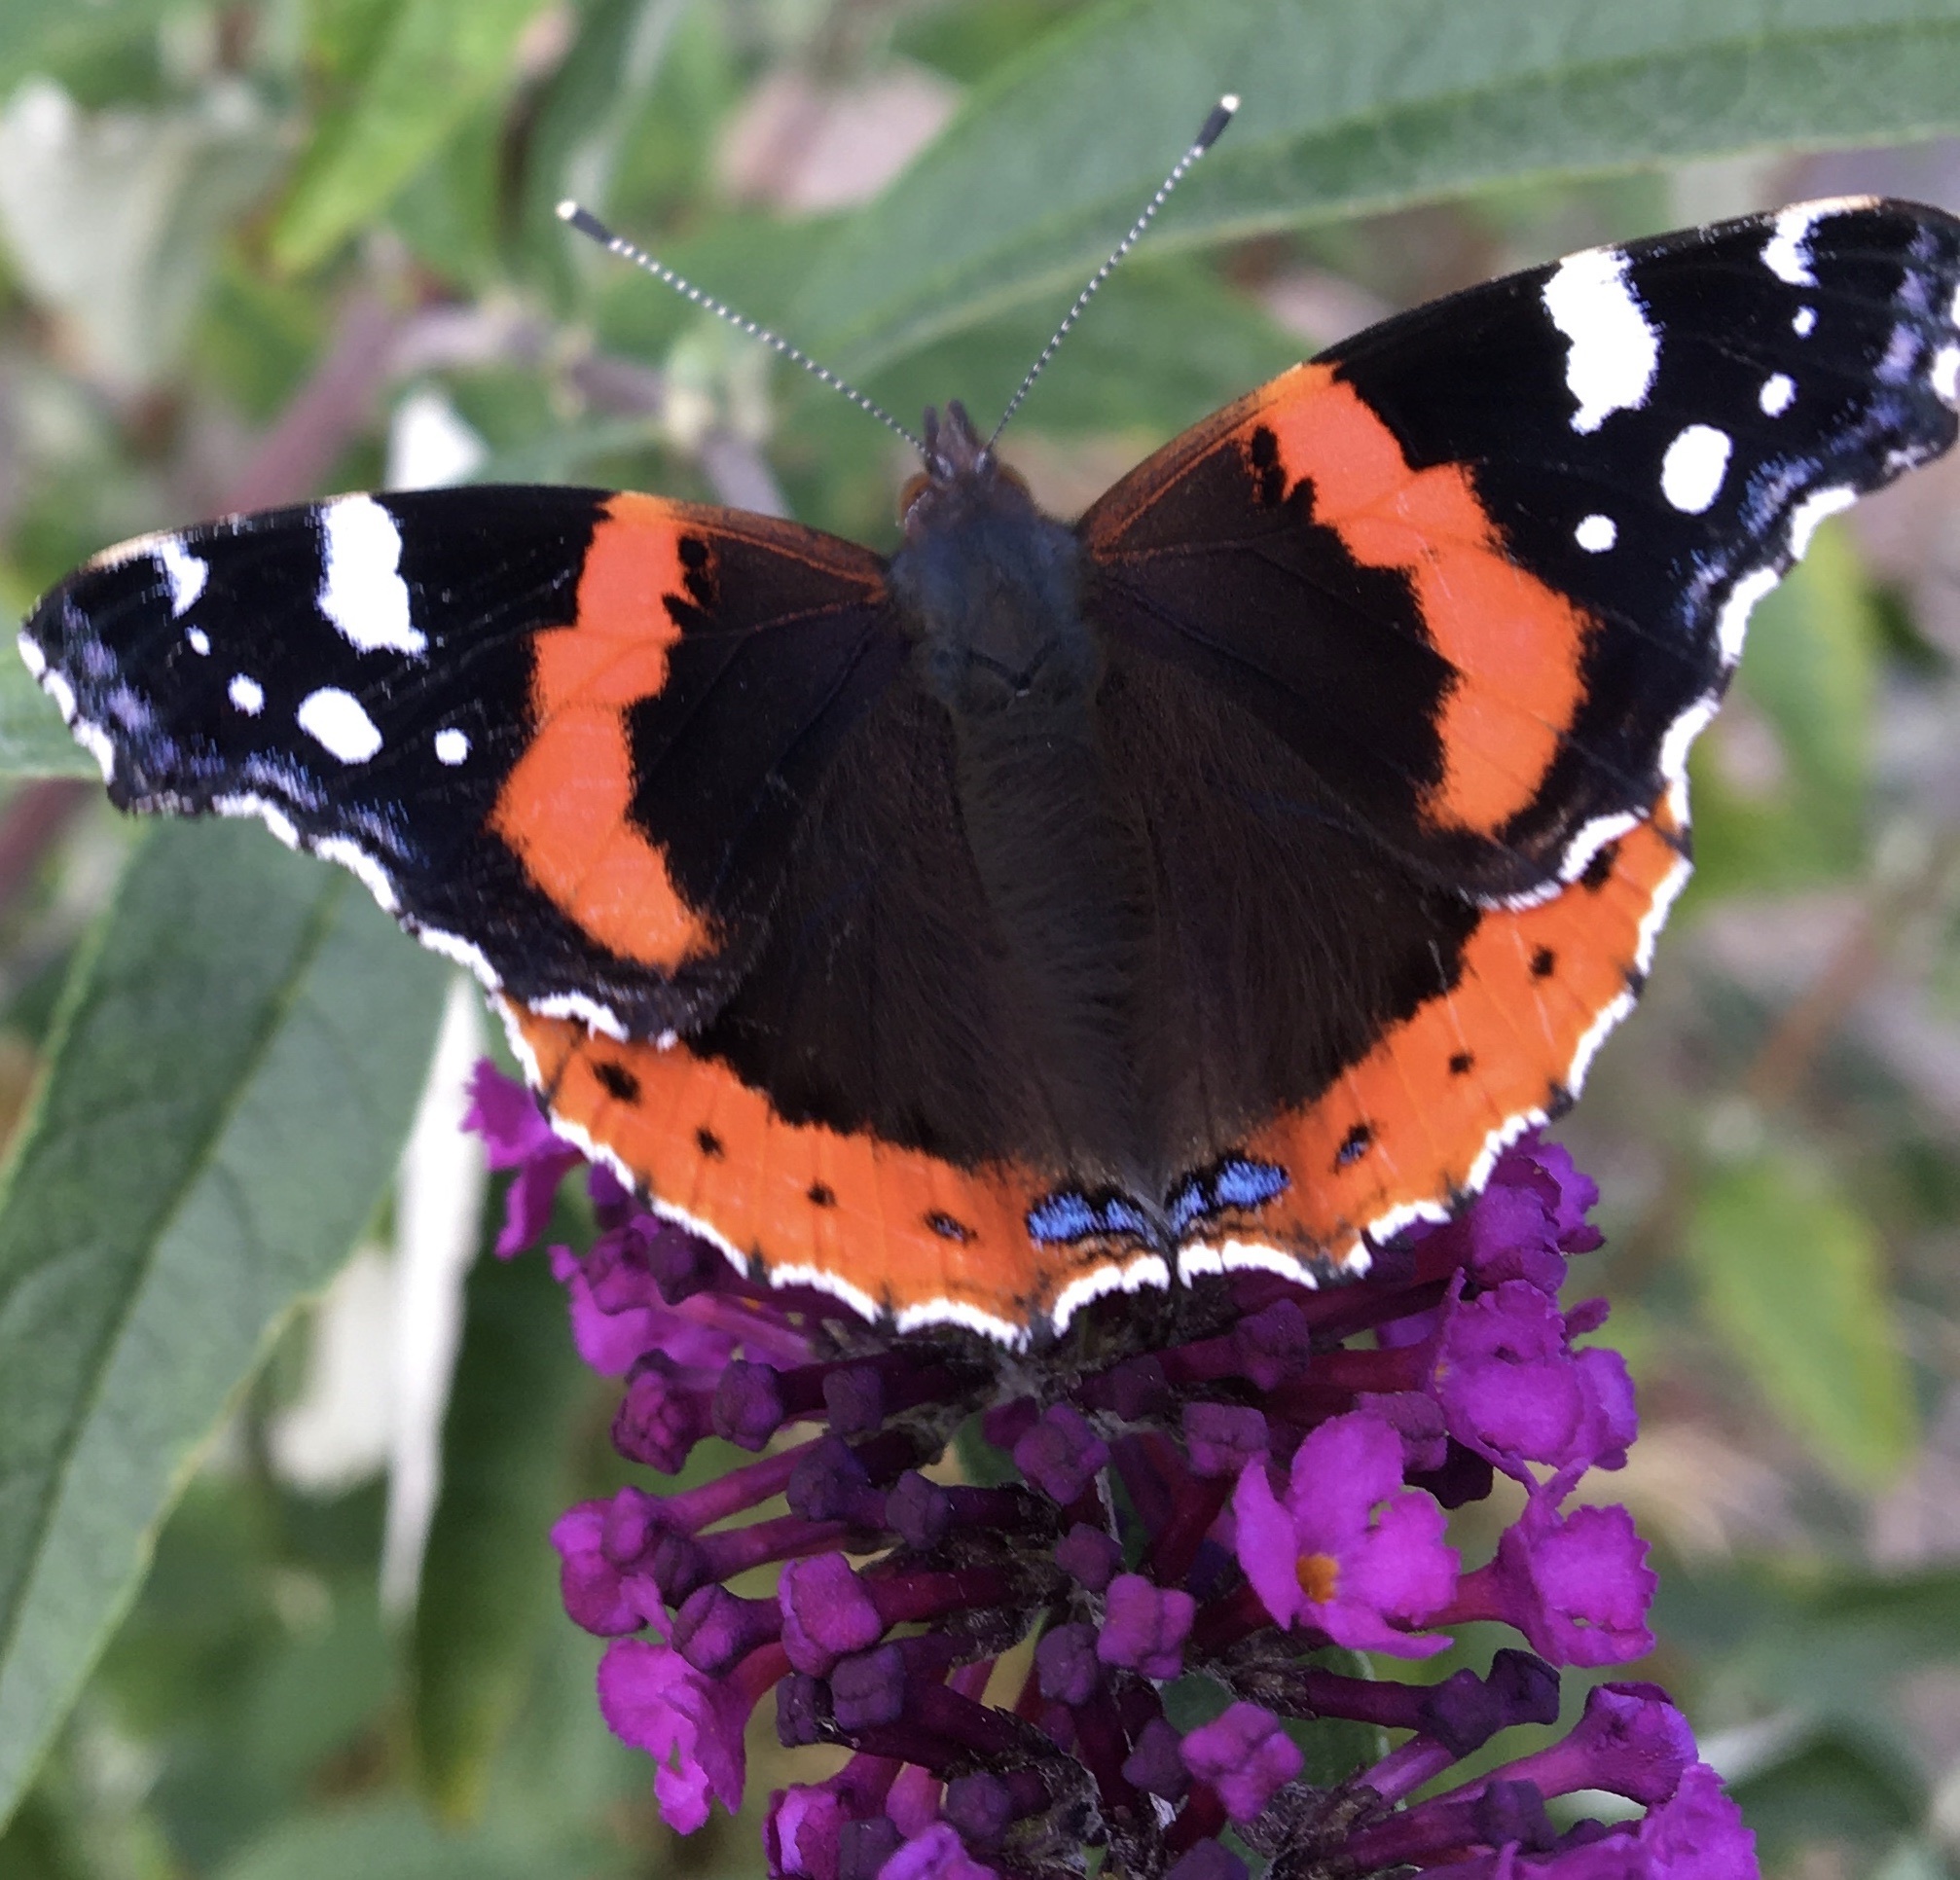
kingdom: Animalia
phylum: Arthropoda
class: Insecta
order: Lepidoptera
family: Nymphalidae
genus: Vanessa
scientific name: Vanessa atalanta
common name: Red admiral
